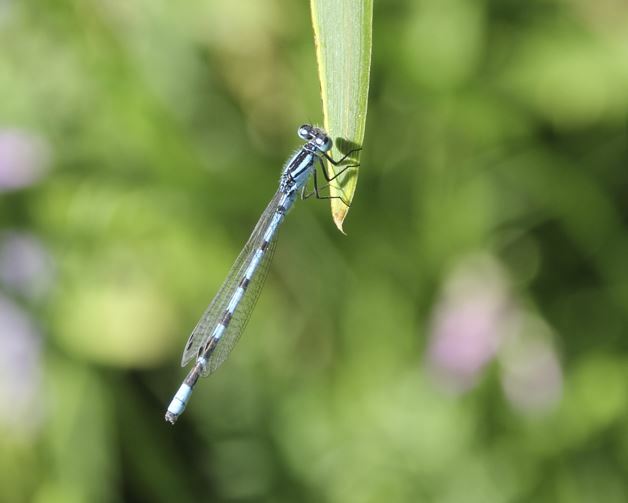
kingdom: Animalia
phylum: Arthropoda
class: Insecta
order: Odonata
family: Coenagrionidae
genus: Enallagma
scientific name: Enallagma cyathigerum
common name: Common blue damselfly
